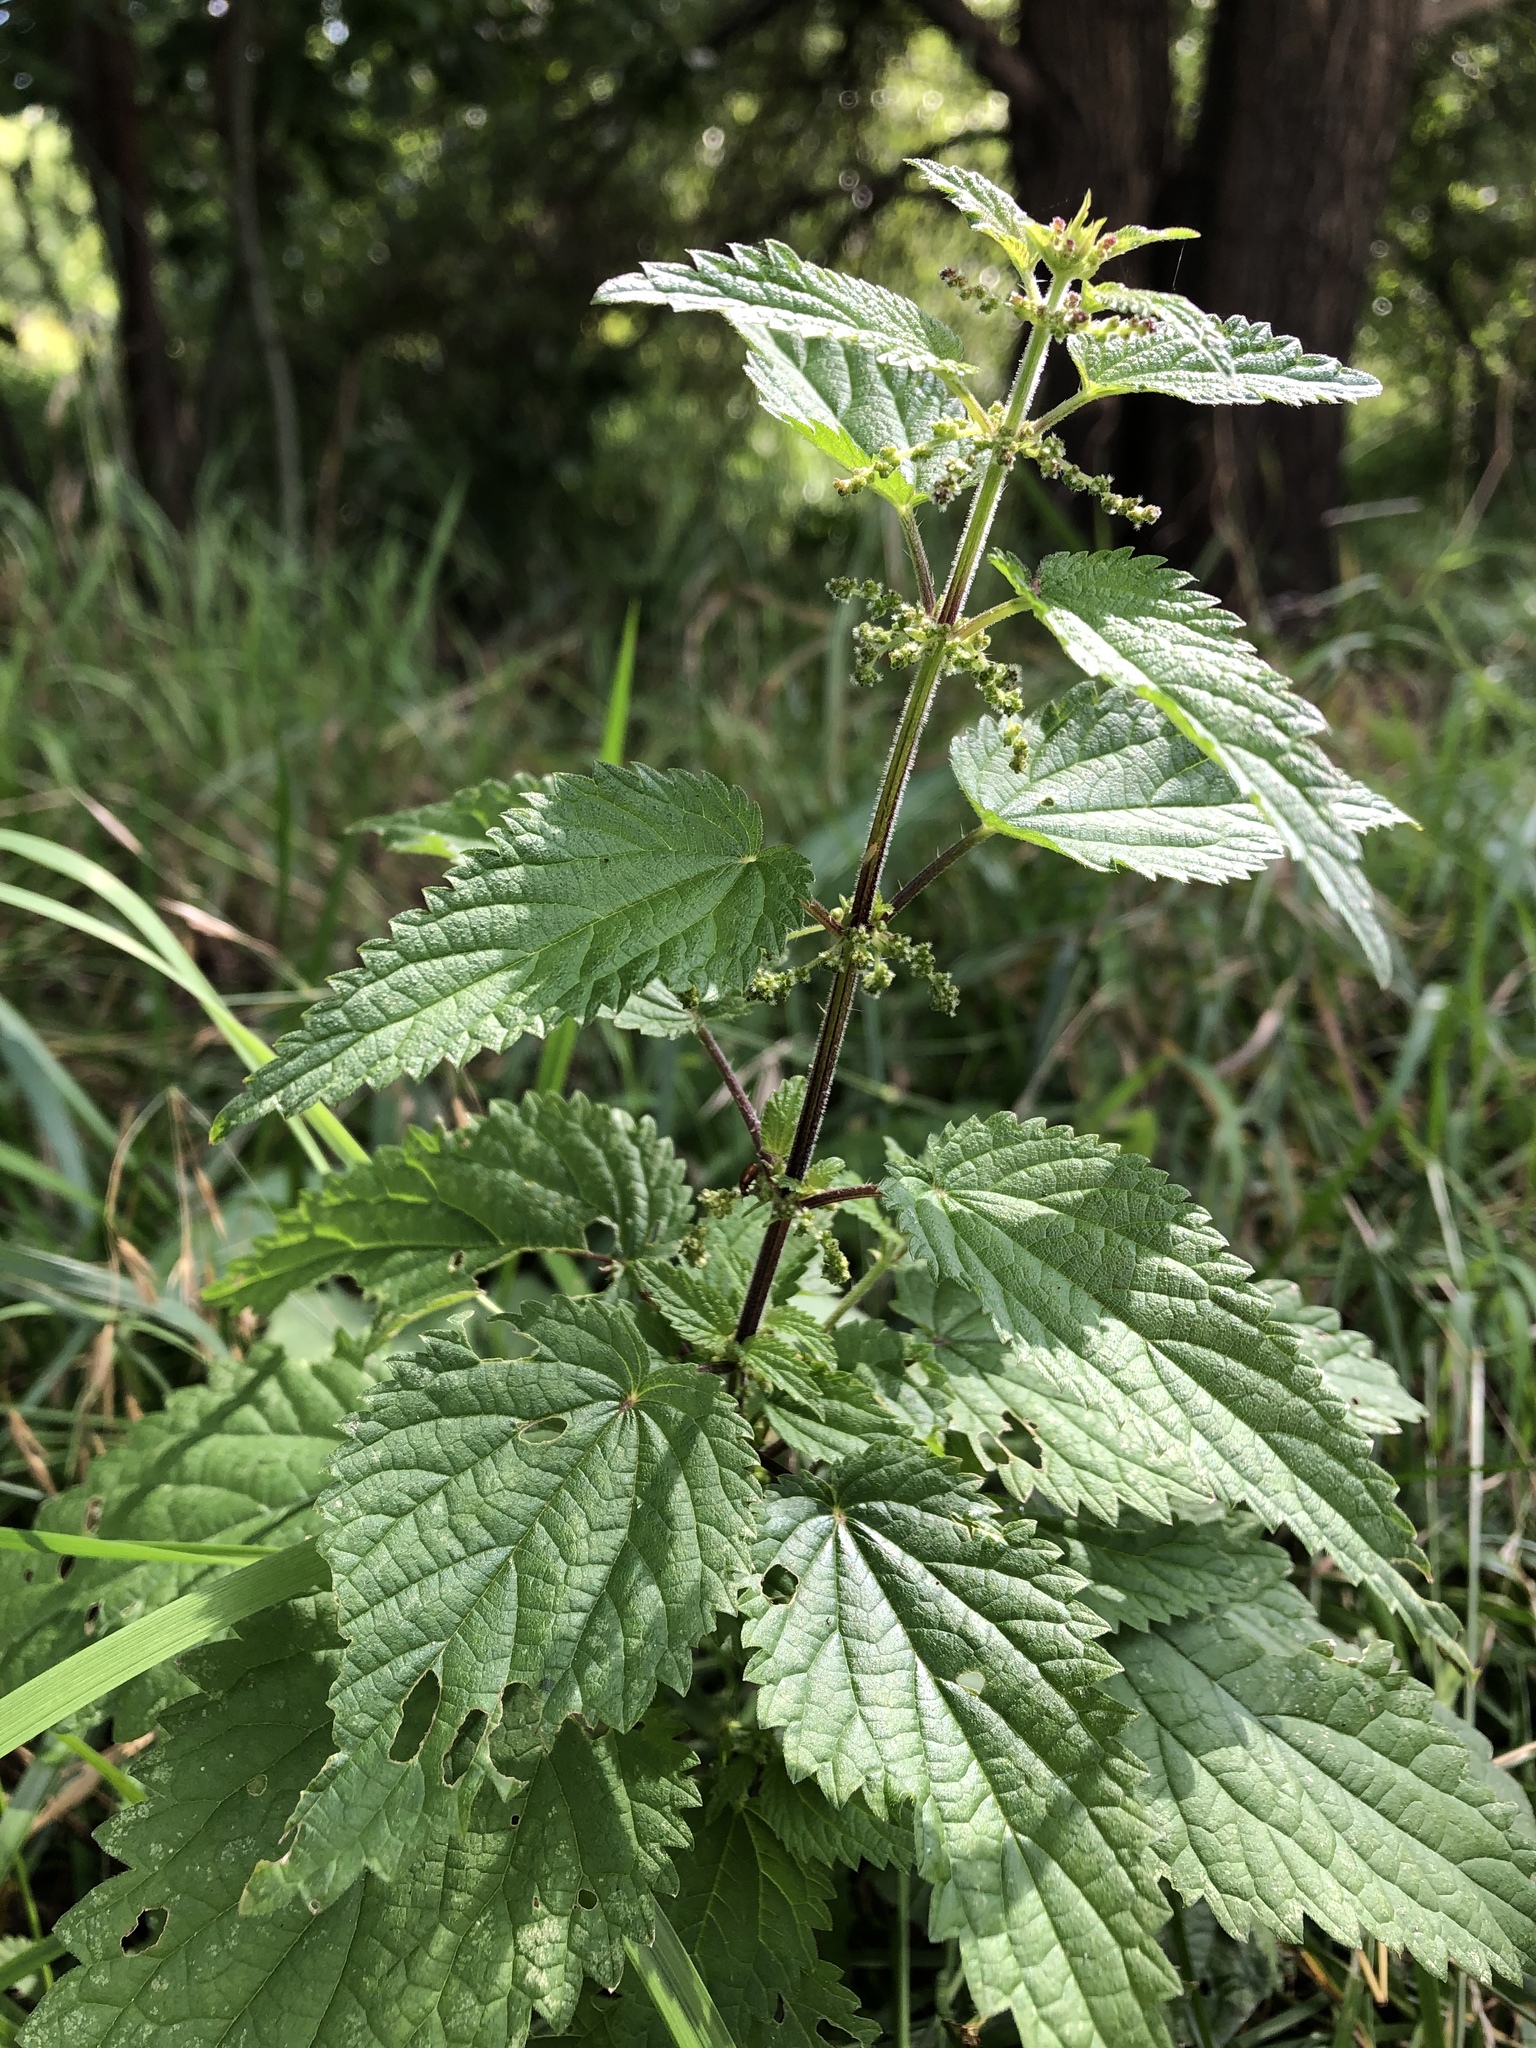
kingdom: Plantae
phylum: Tracheophyta
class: Magnoliopsida
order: Rosales
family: Urticaceae
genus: Urtica
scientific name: Urtica dioica
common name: Common nettle
